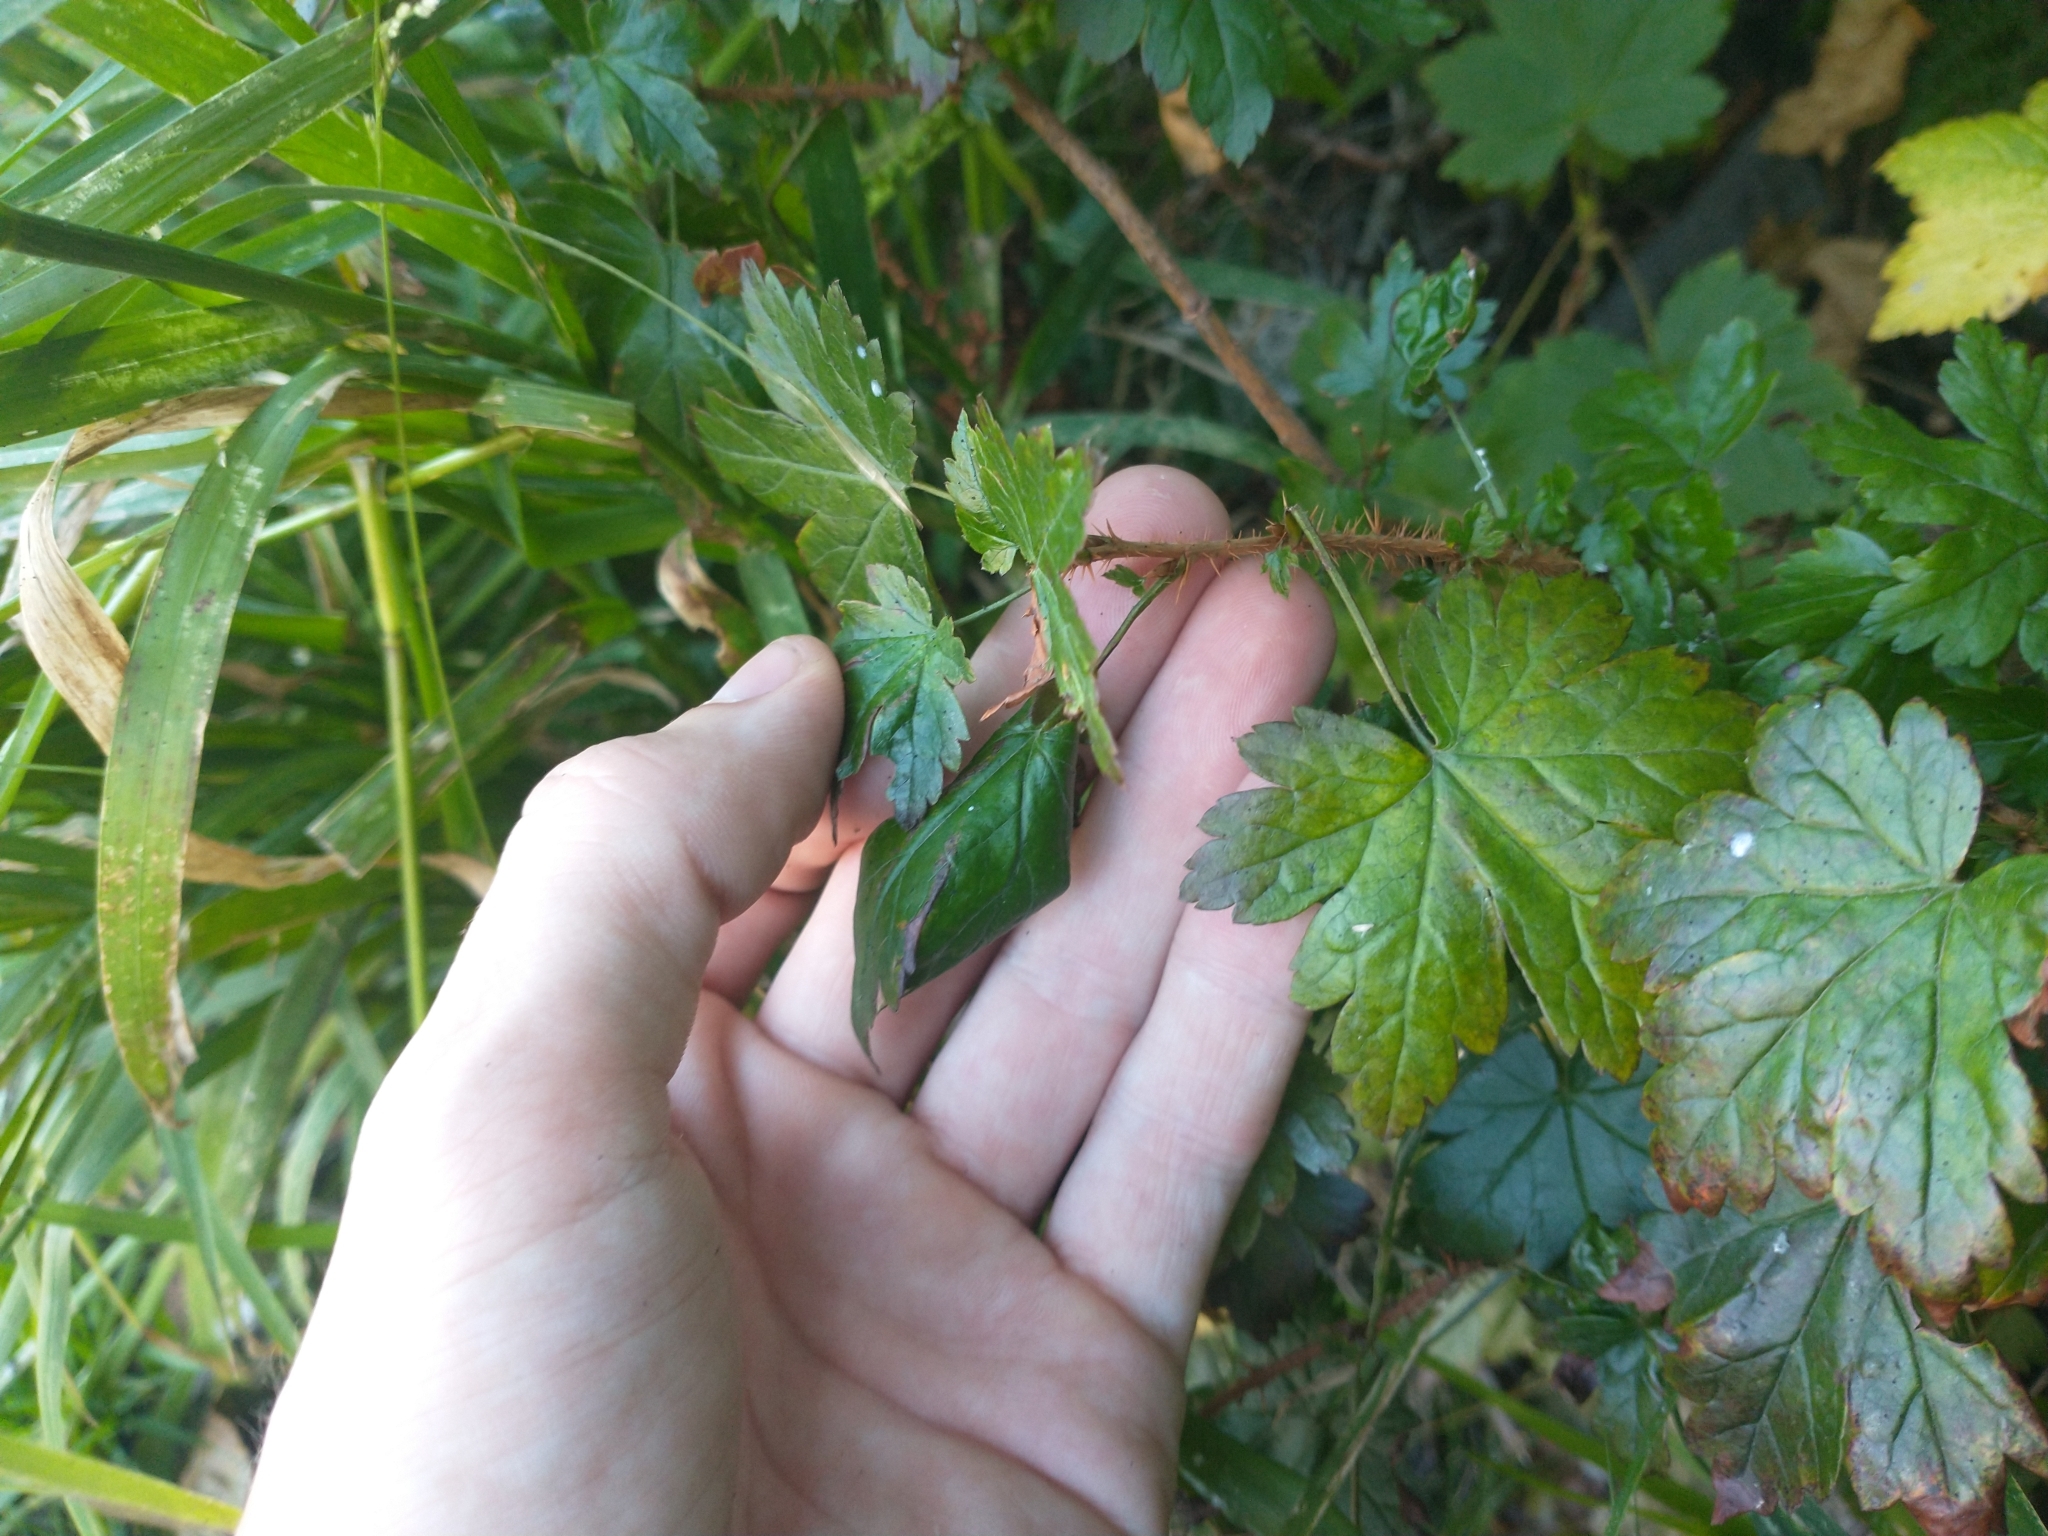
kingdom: Plantae
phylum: Tracheophyta
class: Magnoliopsida
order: Saxifragales
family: Grossulariaceae
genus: Ribes
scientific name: Ribes lacustre
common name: Black gooseberry
